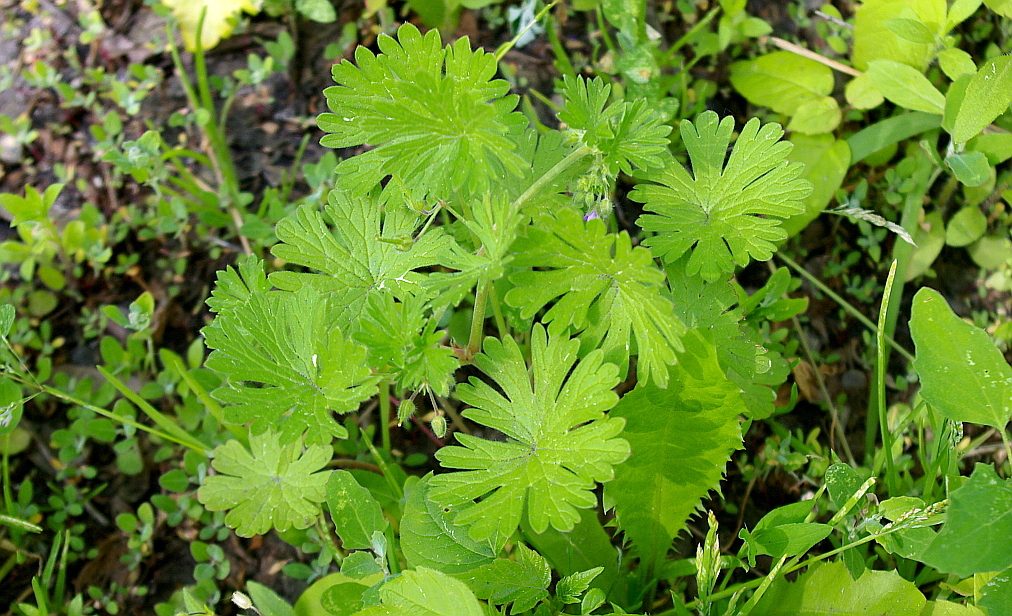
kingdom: Plantae
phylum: Tracheophyta
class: Magnoliopsida
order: Geraniales
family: Geraniaceae
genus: Geranium
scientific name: Geranium pusillum
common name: Small geranium
